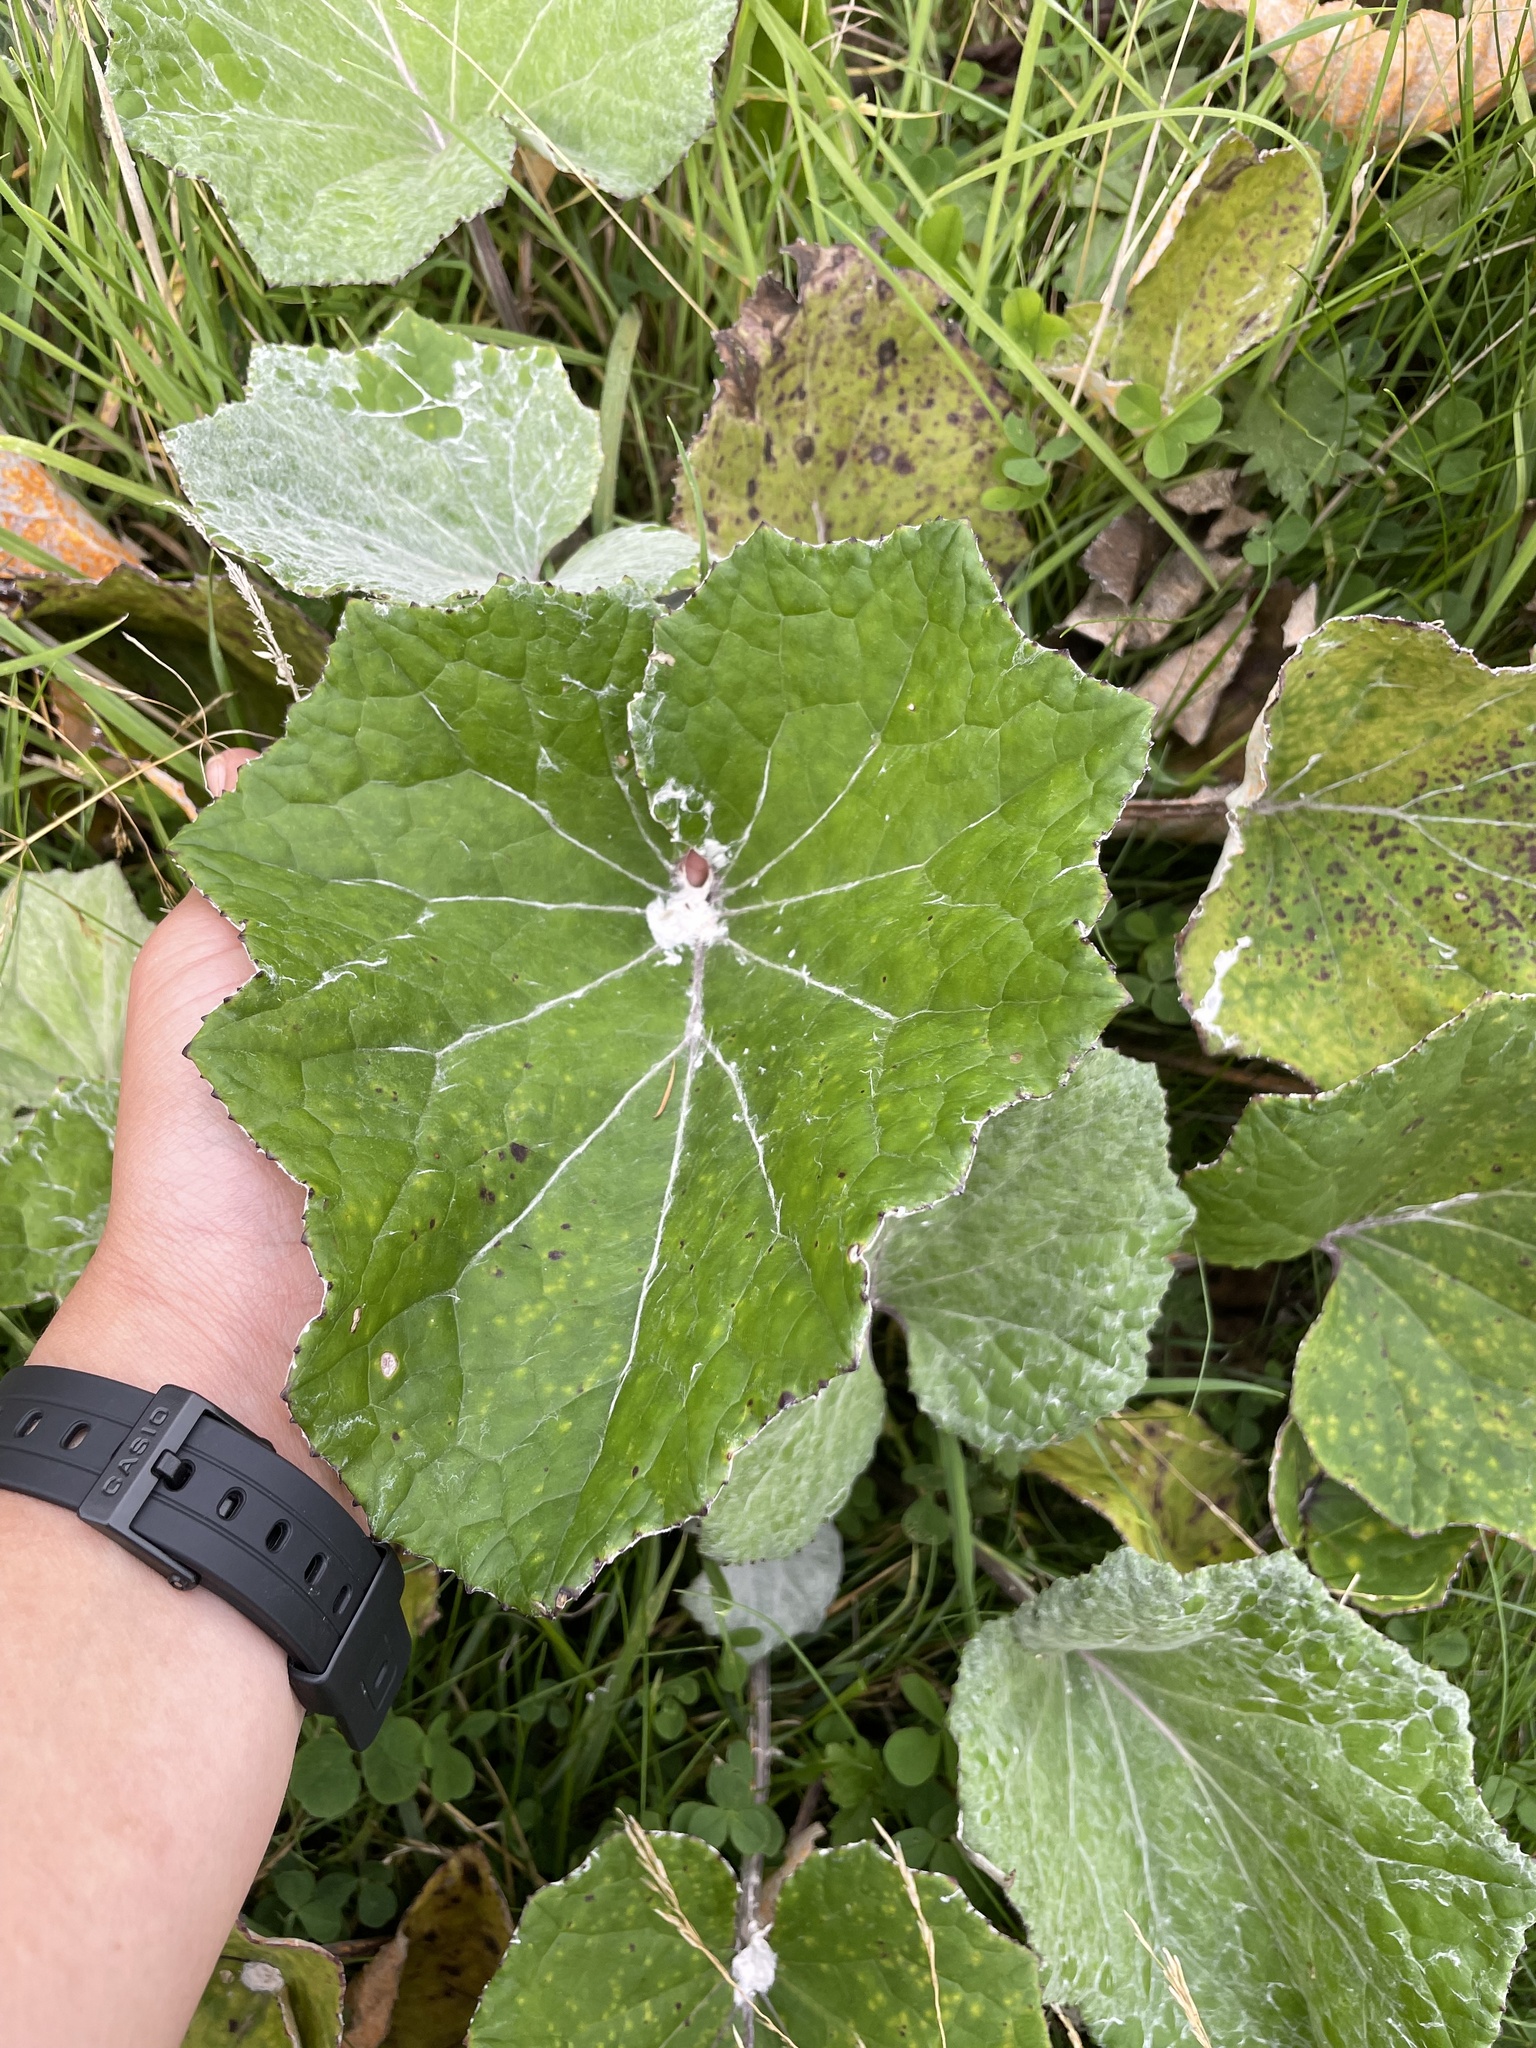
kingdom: Plantae
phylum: Tracheophyta
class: Magnoliopsida
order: Asterales
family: Asteraceae
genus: Tussilago
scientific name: Tussilago farfara
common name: Coltsfoot
